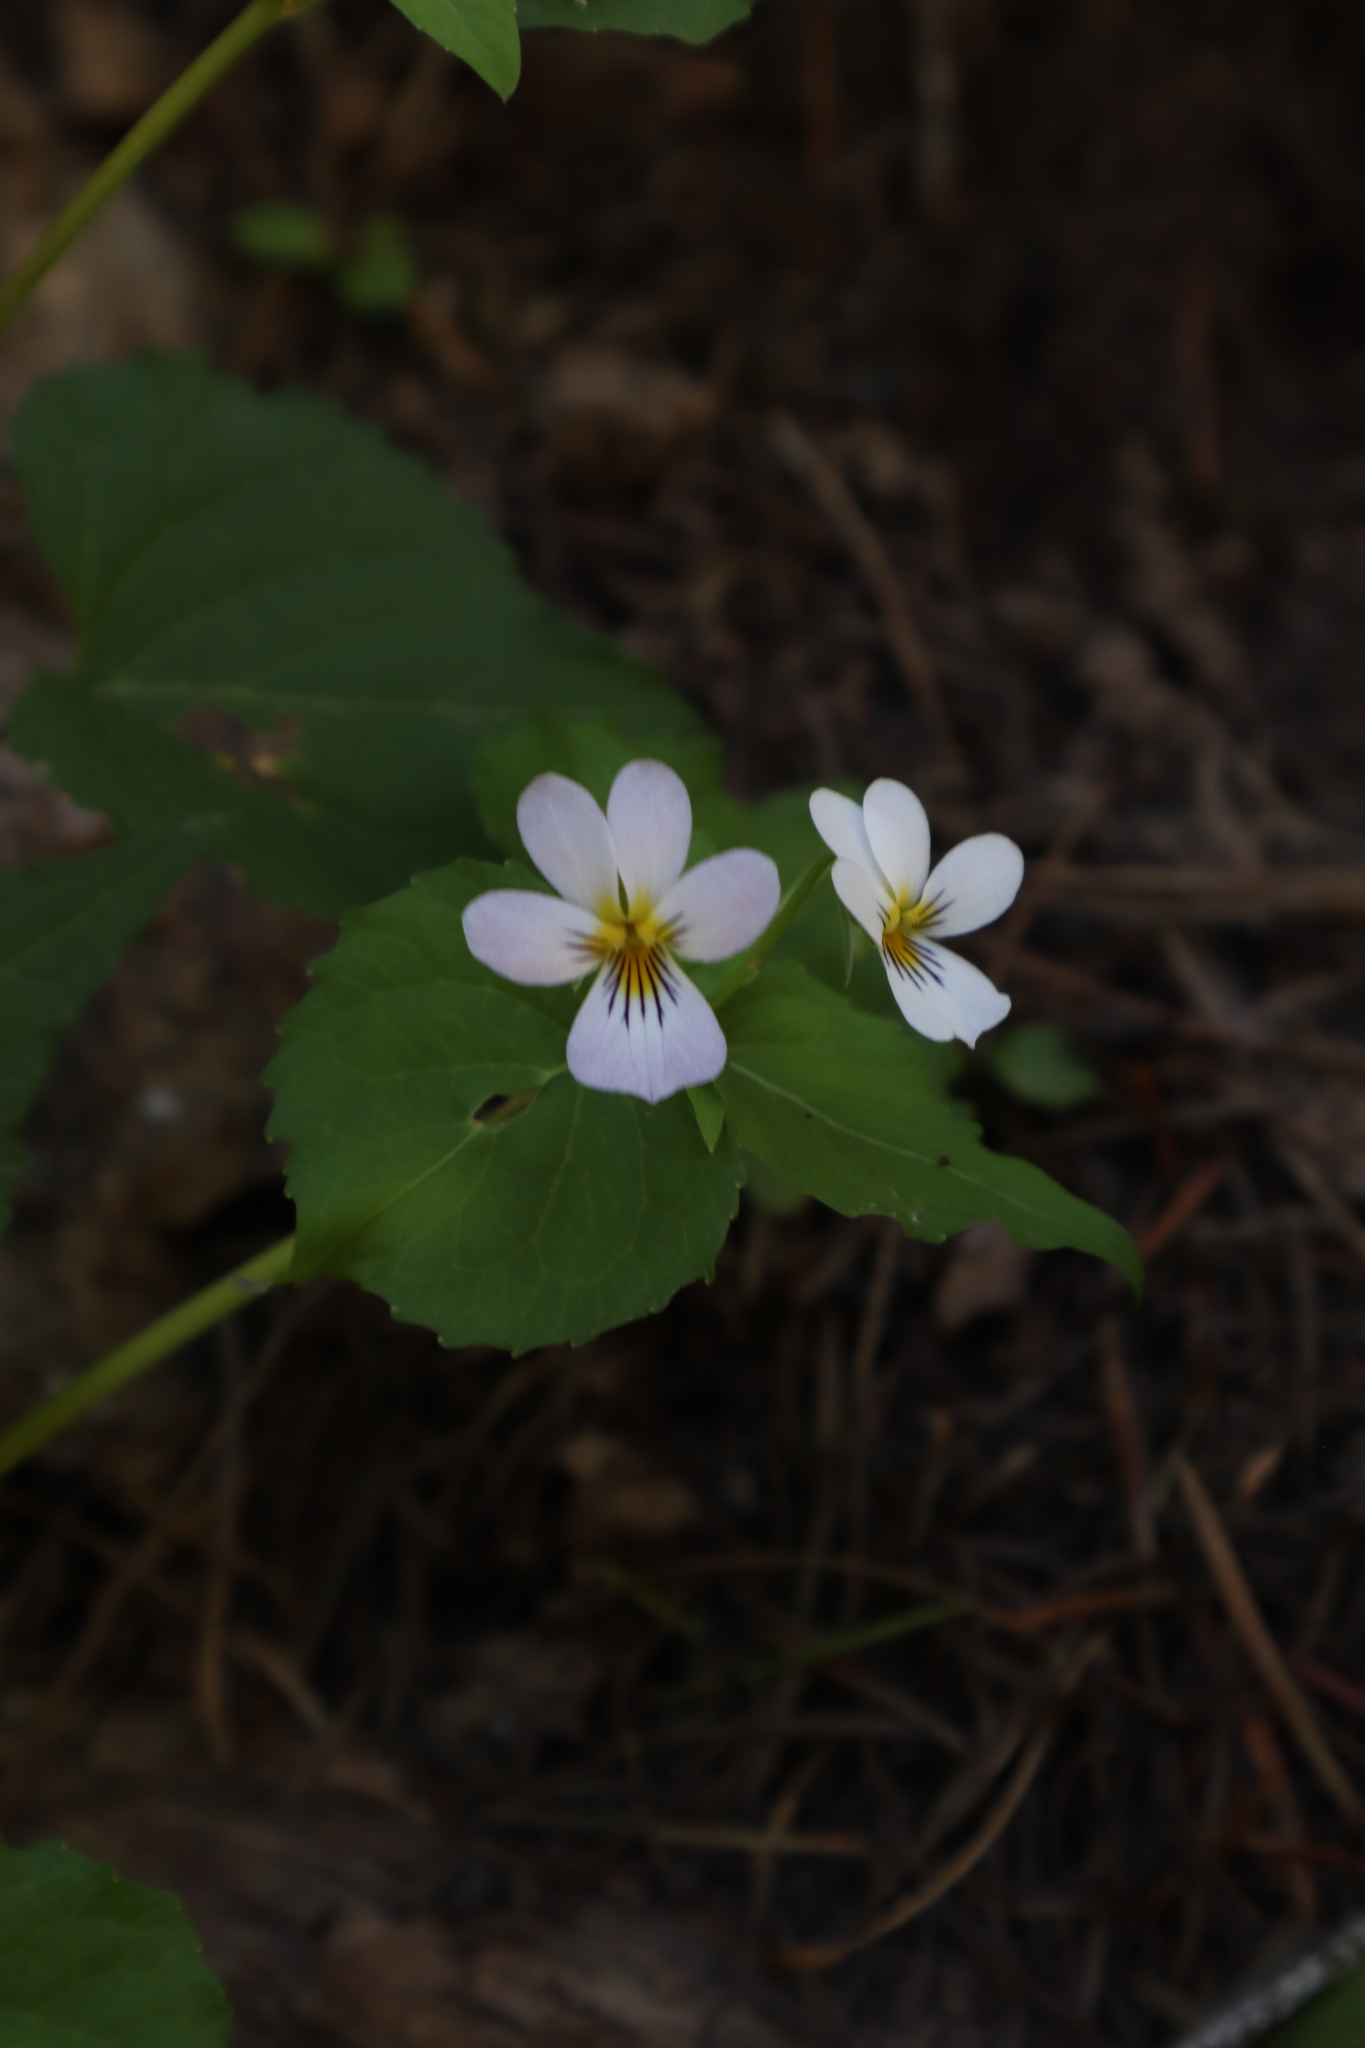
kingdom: Plantae
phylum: Tracheophyta
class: Magnoliopsida
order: Malpighiales
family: Violaceae
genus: Viola
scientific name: Viola canadensis
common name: Canada violet
